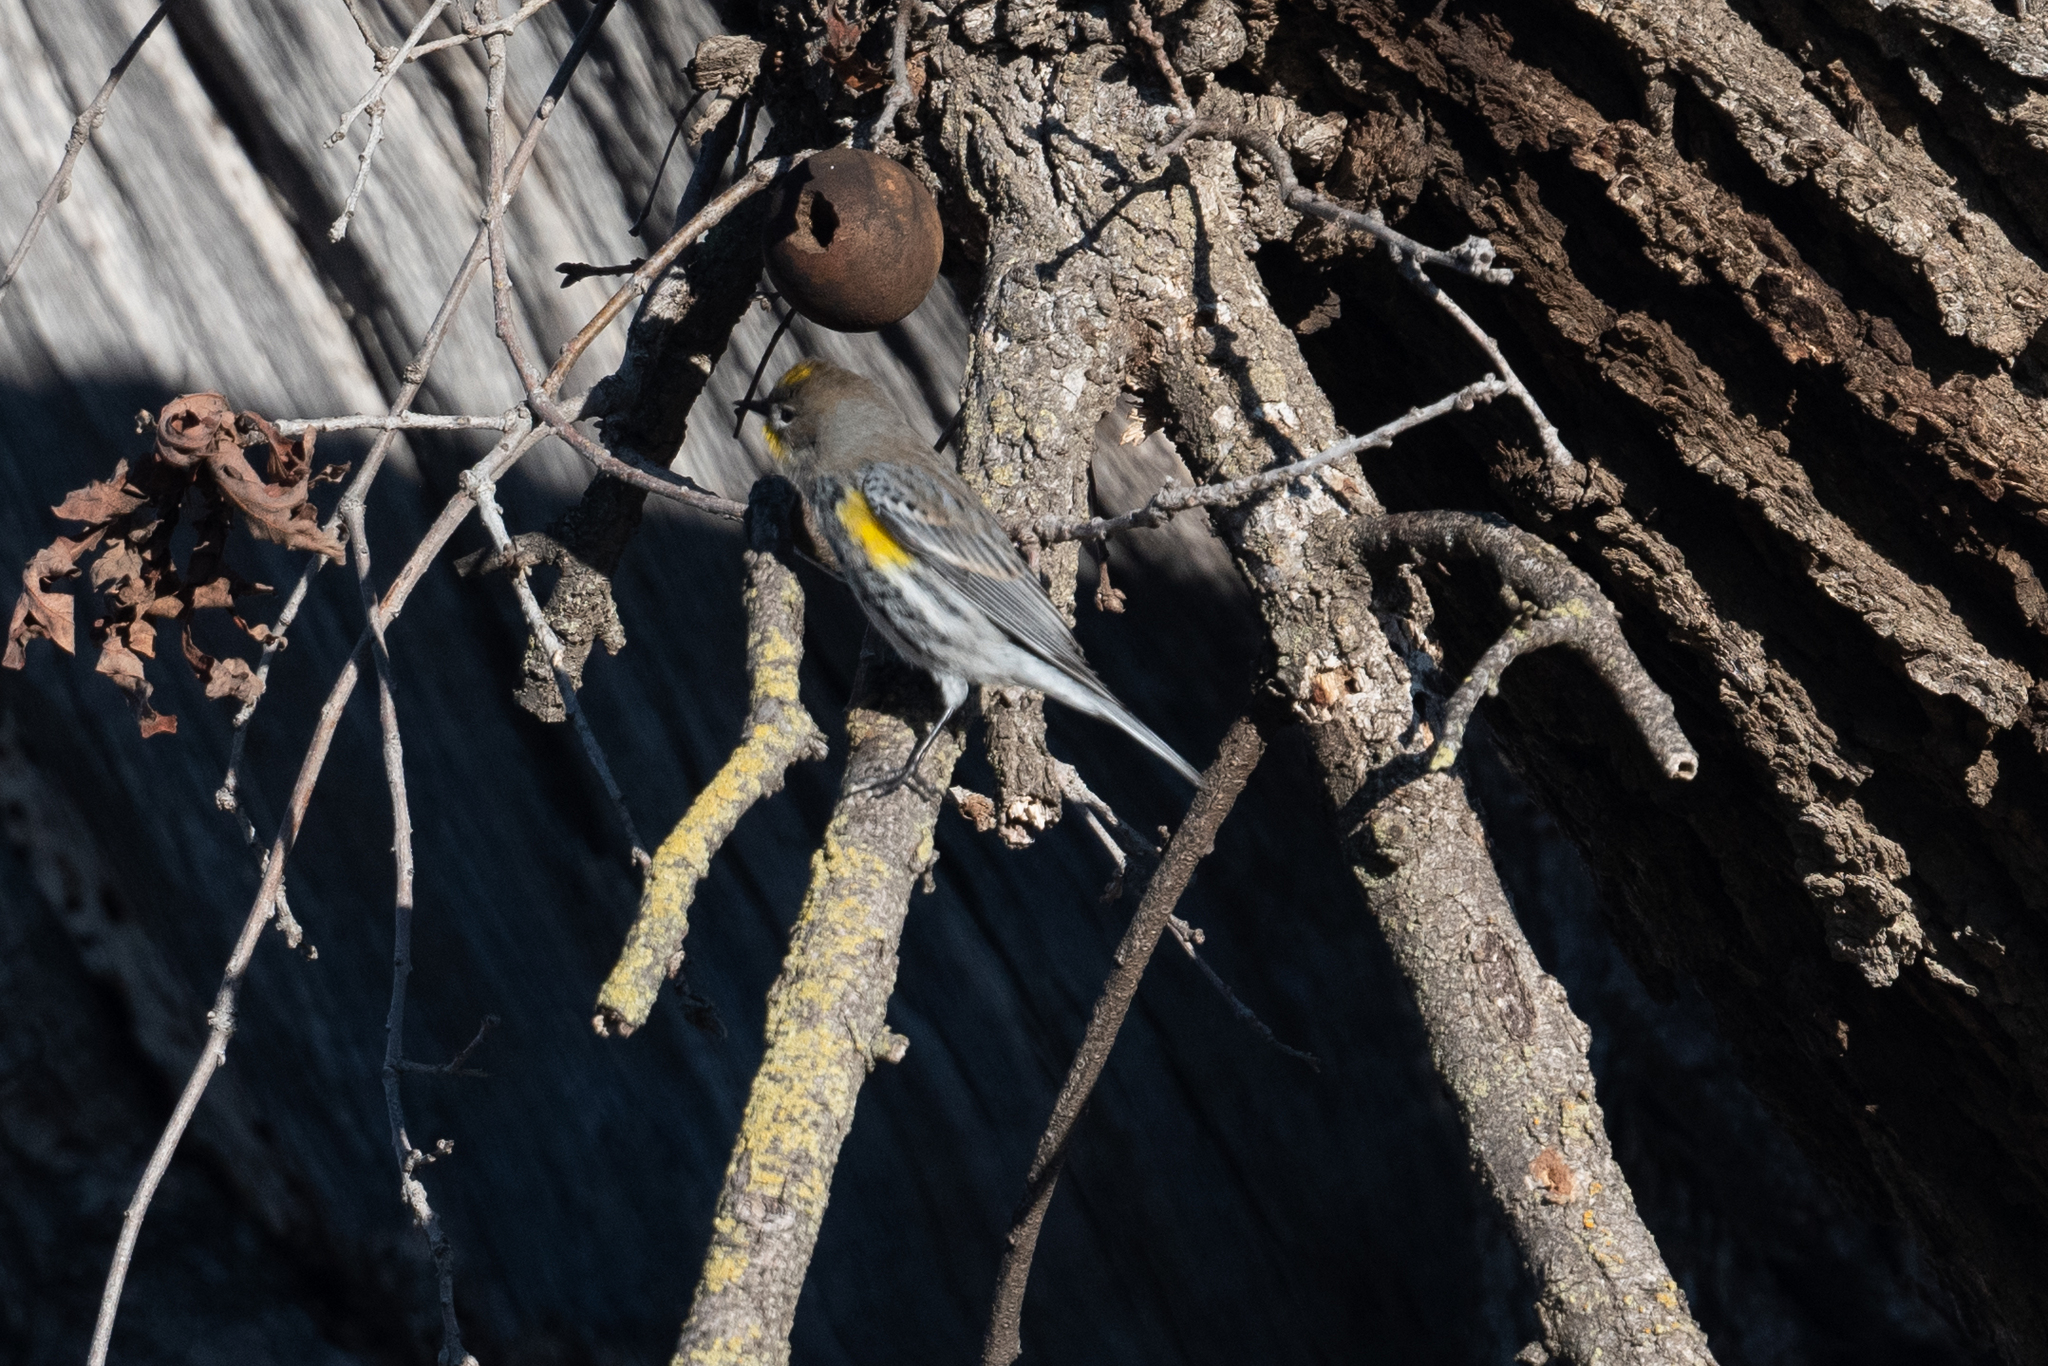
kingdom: Animalia
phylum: Chordata
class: Aves
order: Passeriformes
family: Parulidae
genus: Setophaga
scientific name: Setophaga coronata
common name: Myrtle warbler
